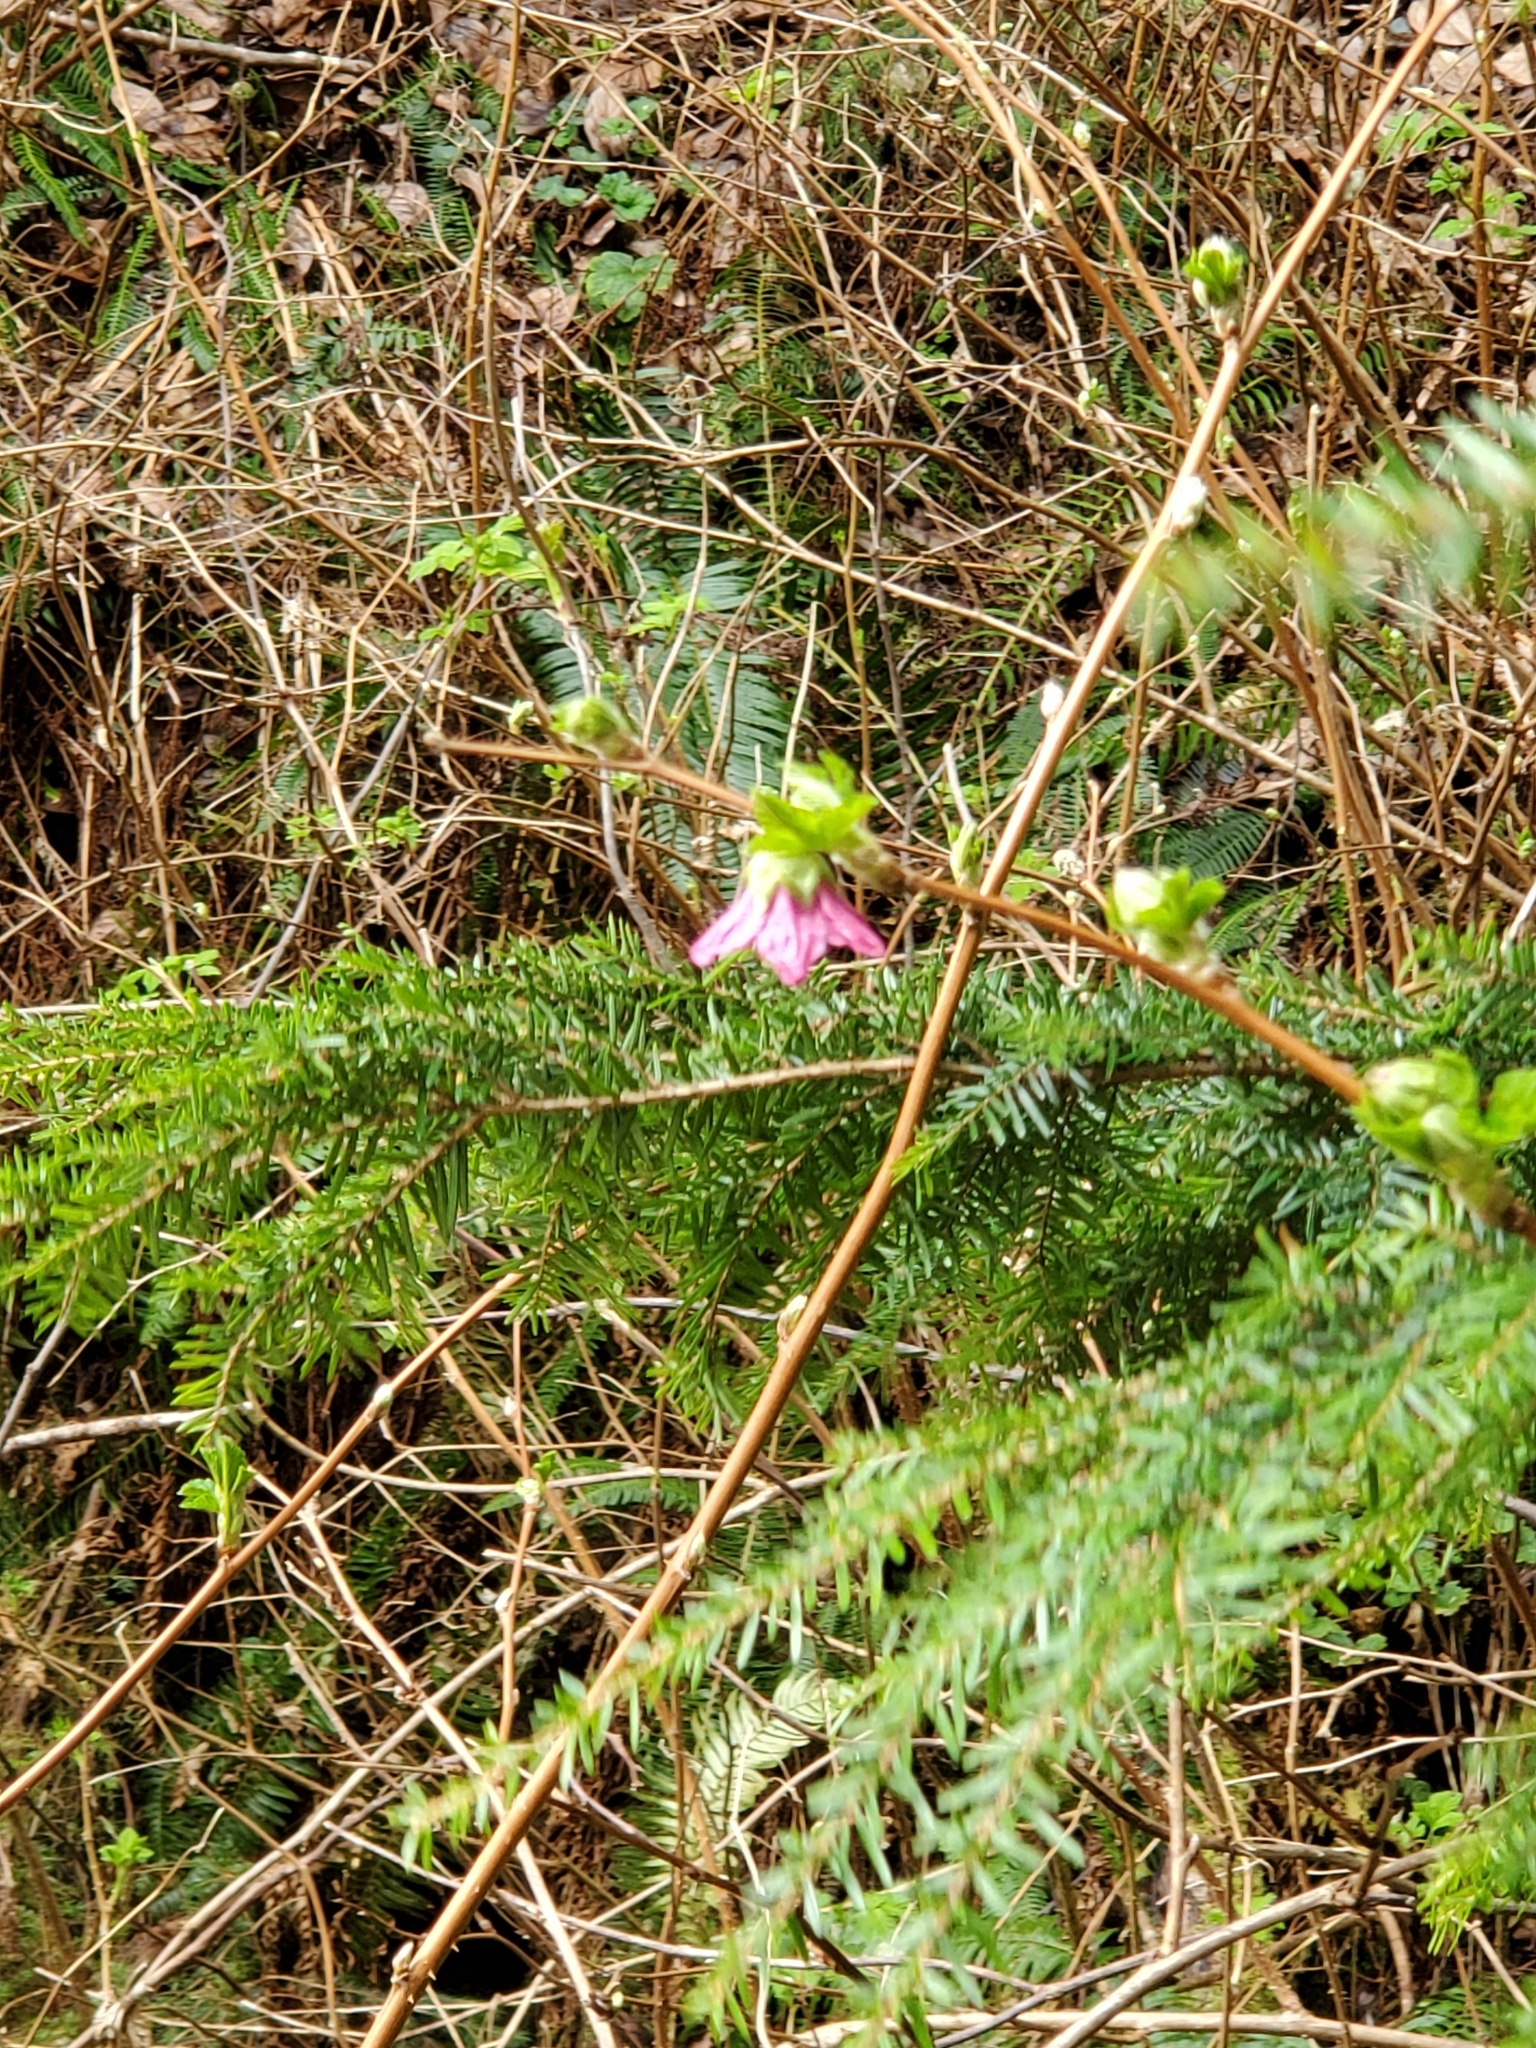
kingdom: Plantae
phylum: Tracheophyta
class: Magnoliopsida
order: Rosales
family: Rosaceae
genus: Rubus
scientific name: Rubus spectabilis
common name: Salmonberry
